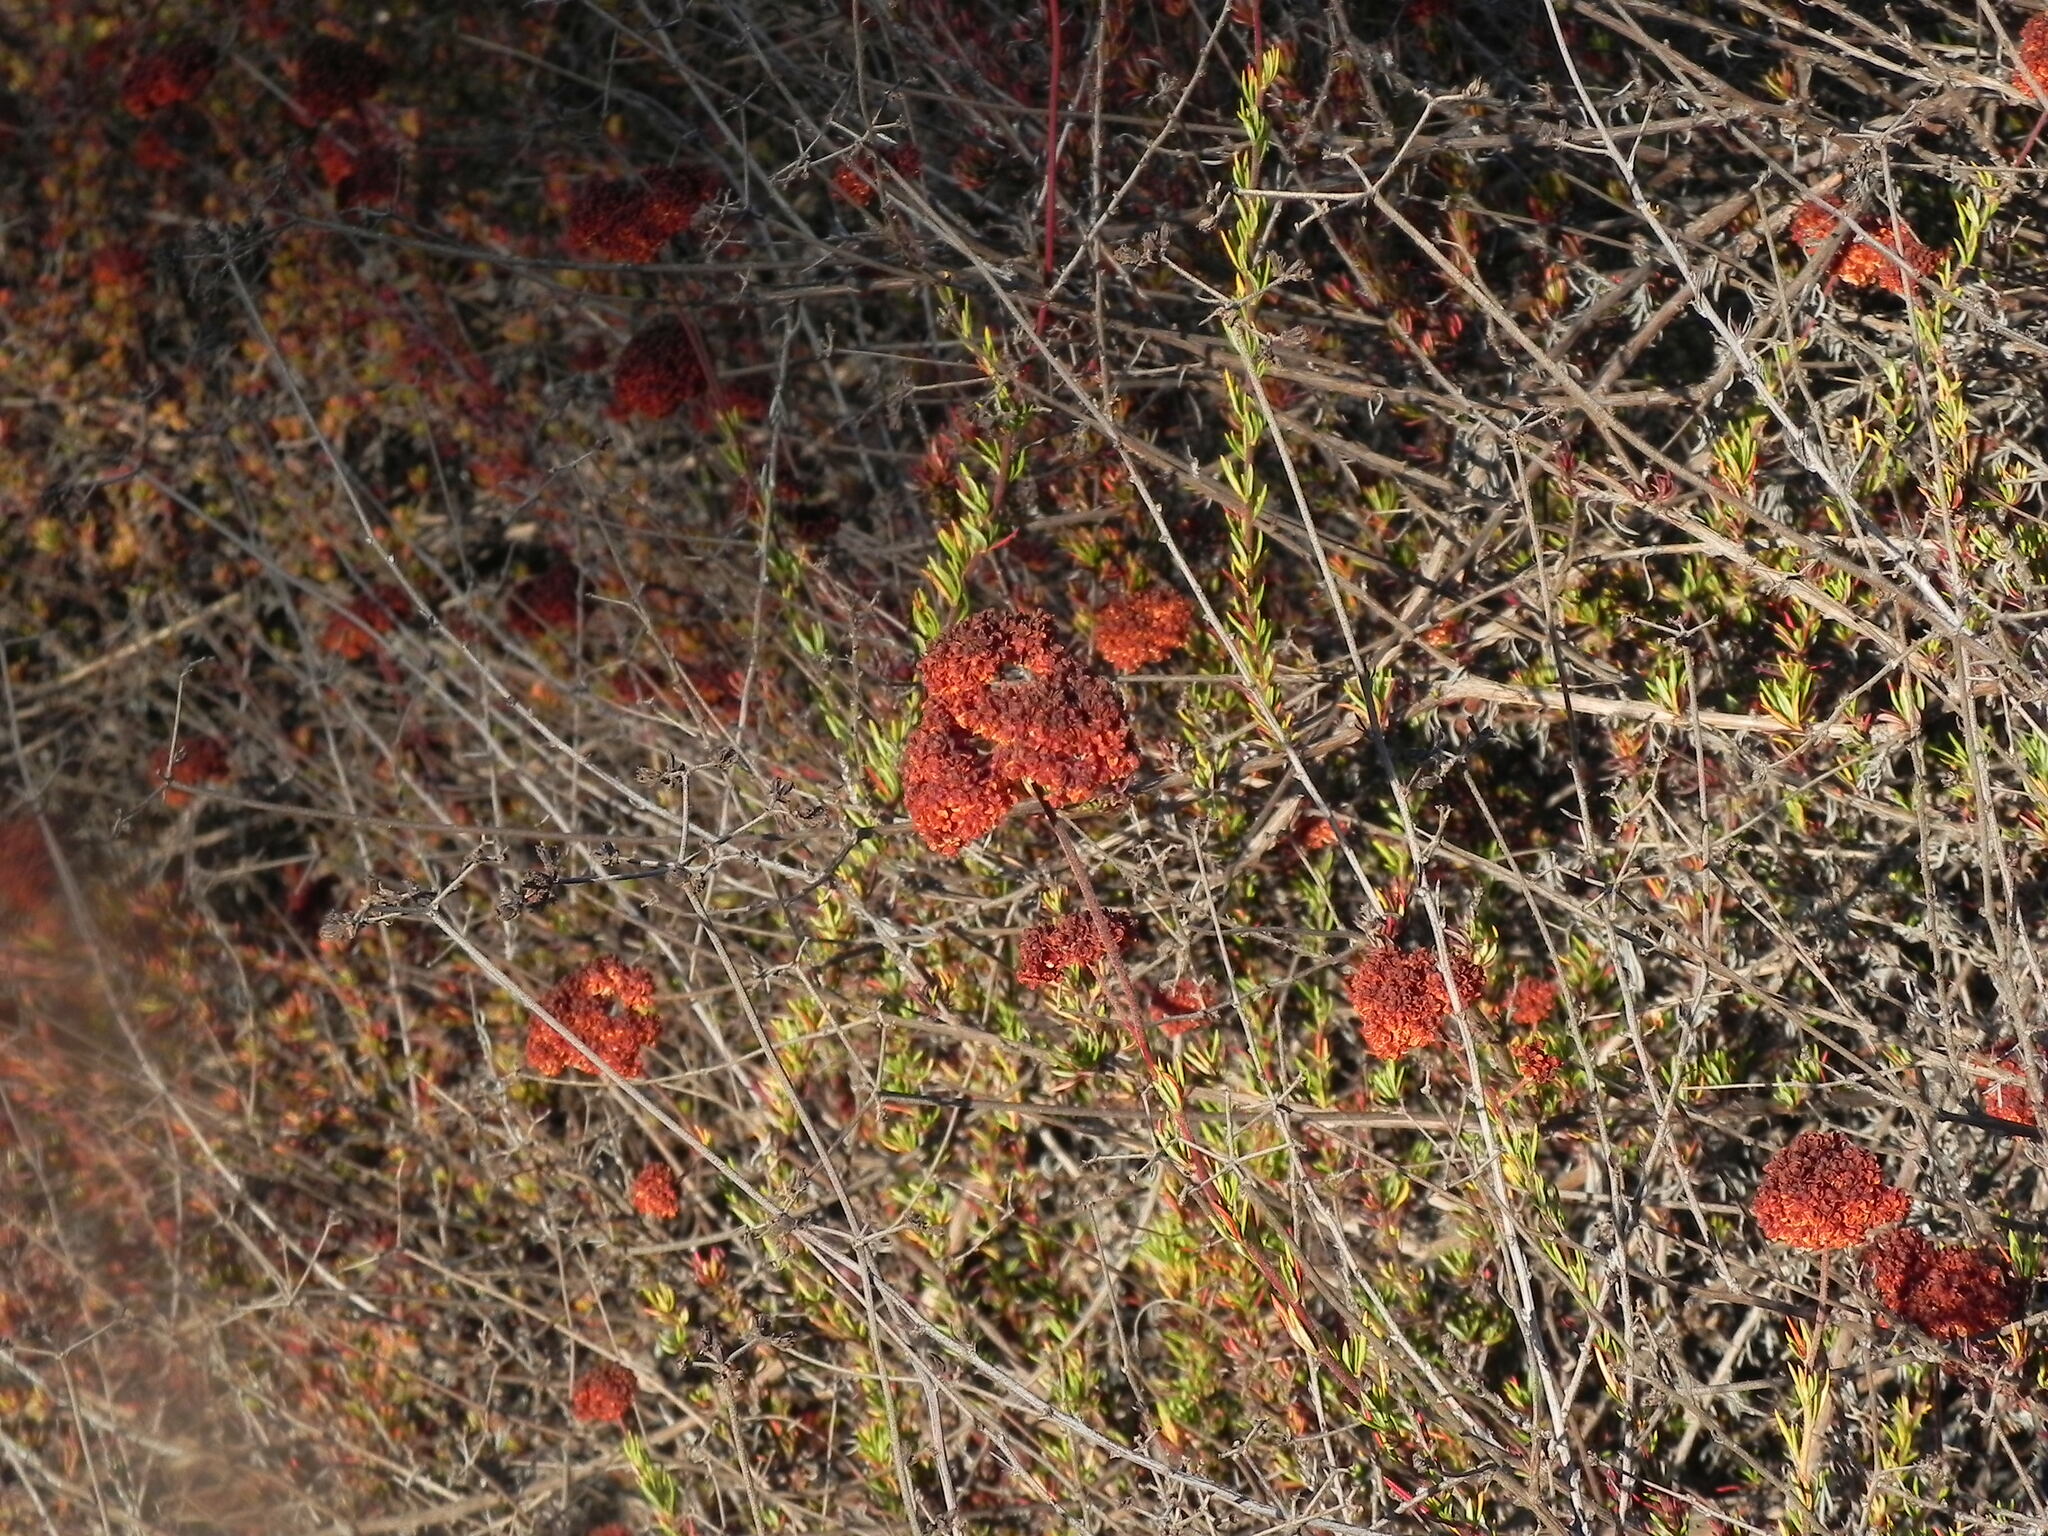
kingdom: Plantae
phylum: Tracheophyta
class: Magnoliopsida
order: Caryophyllales
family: Polygonaceae
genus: Eriogonum
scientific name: Eriogonum fasciculatum
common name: California wild buckwheat
